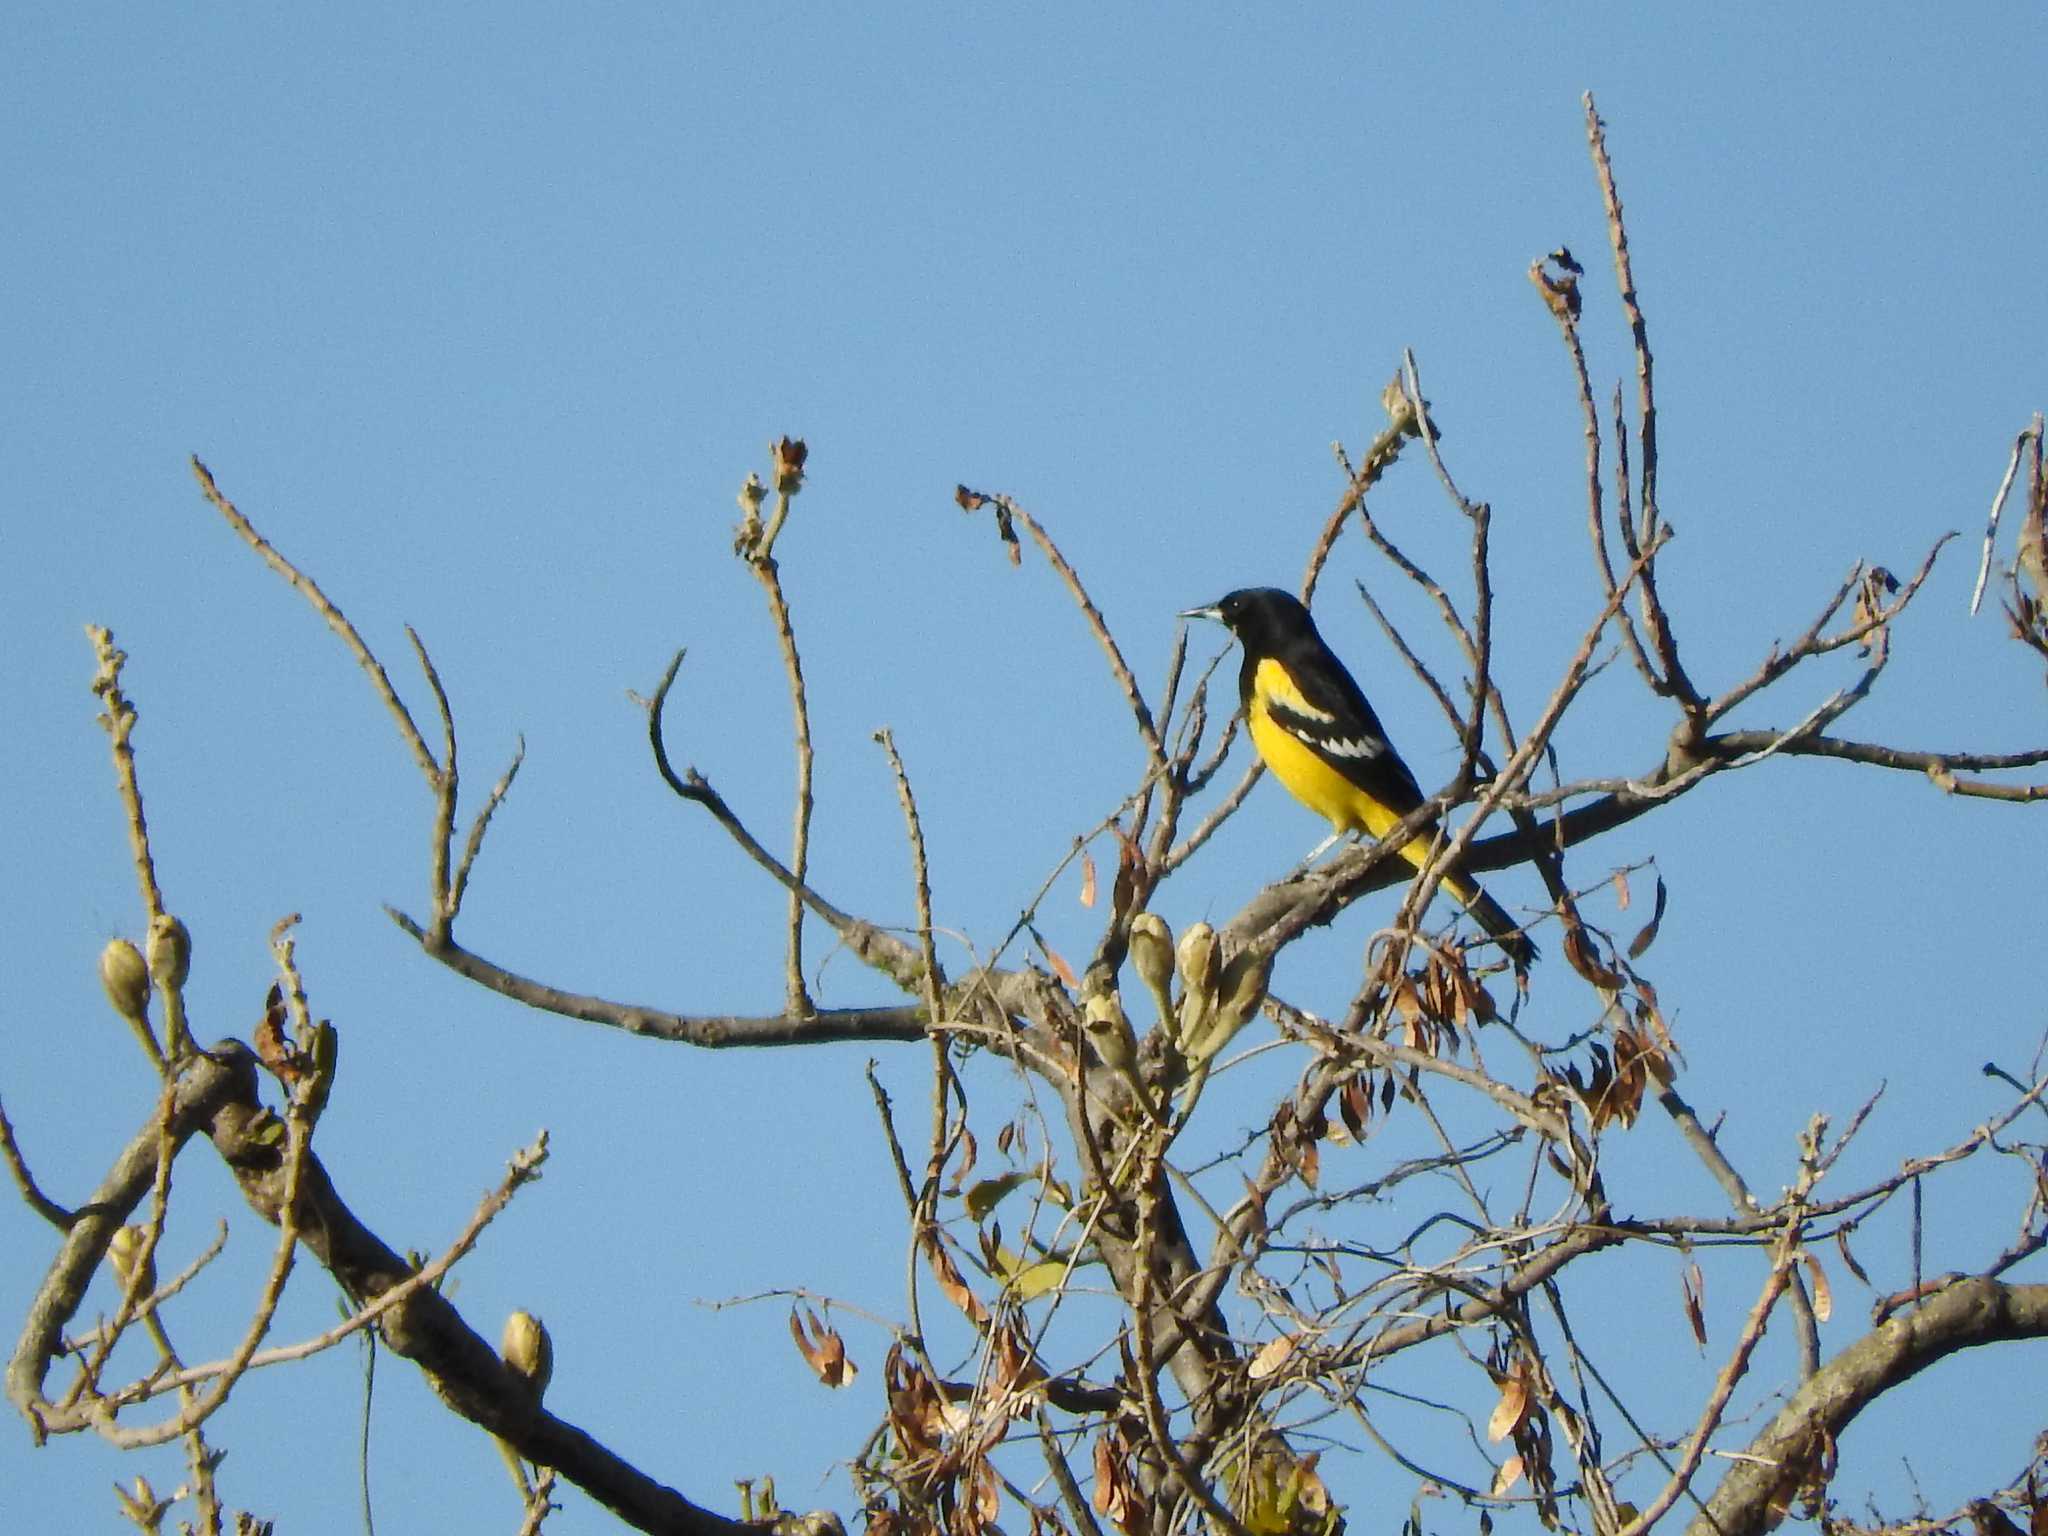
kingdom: Animalia
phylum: Chordata
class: Aves
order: Passeriformes
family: Icteridae
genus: Icterus
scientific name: Icterus parisorum
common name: Scott's oriole
